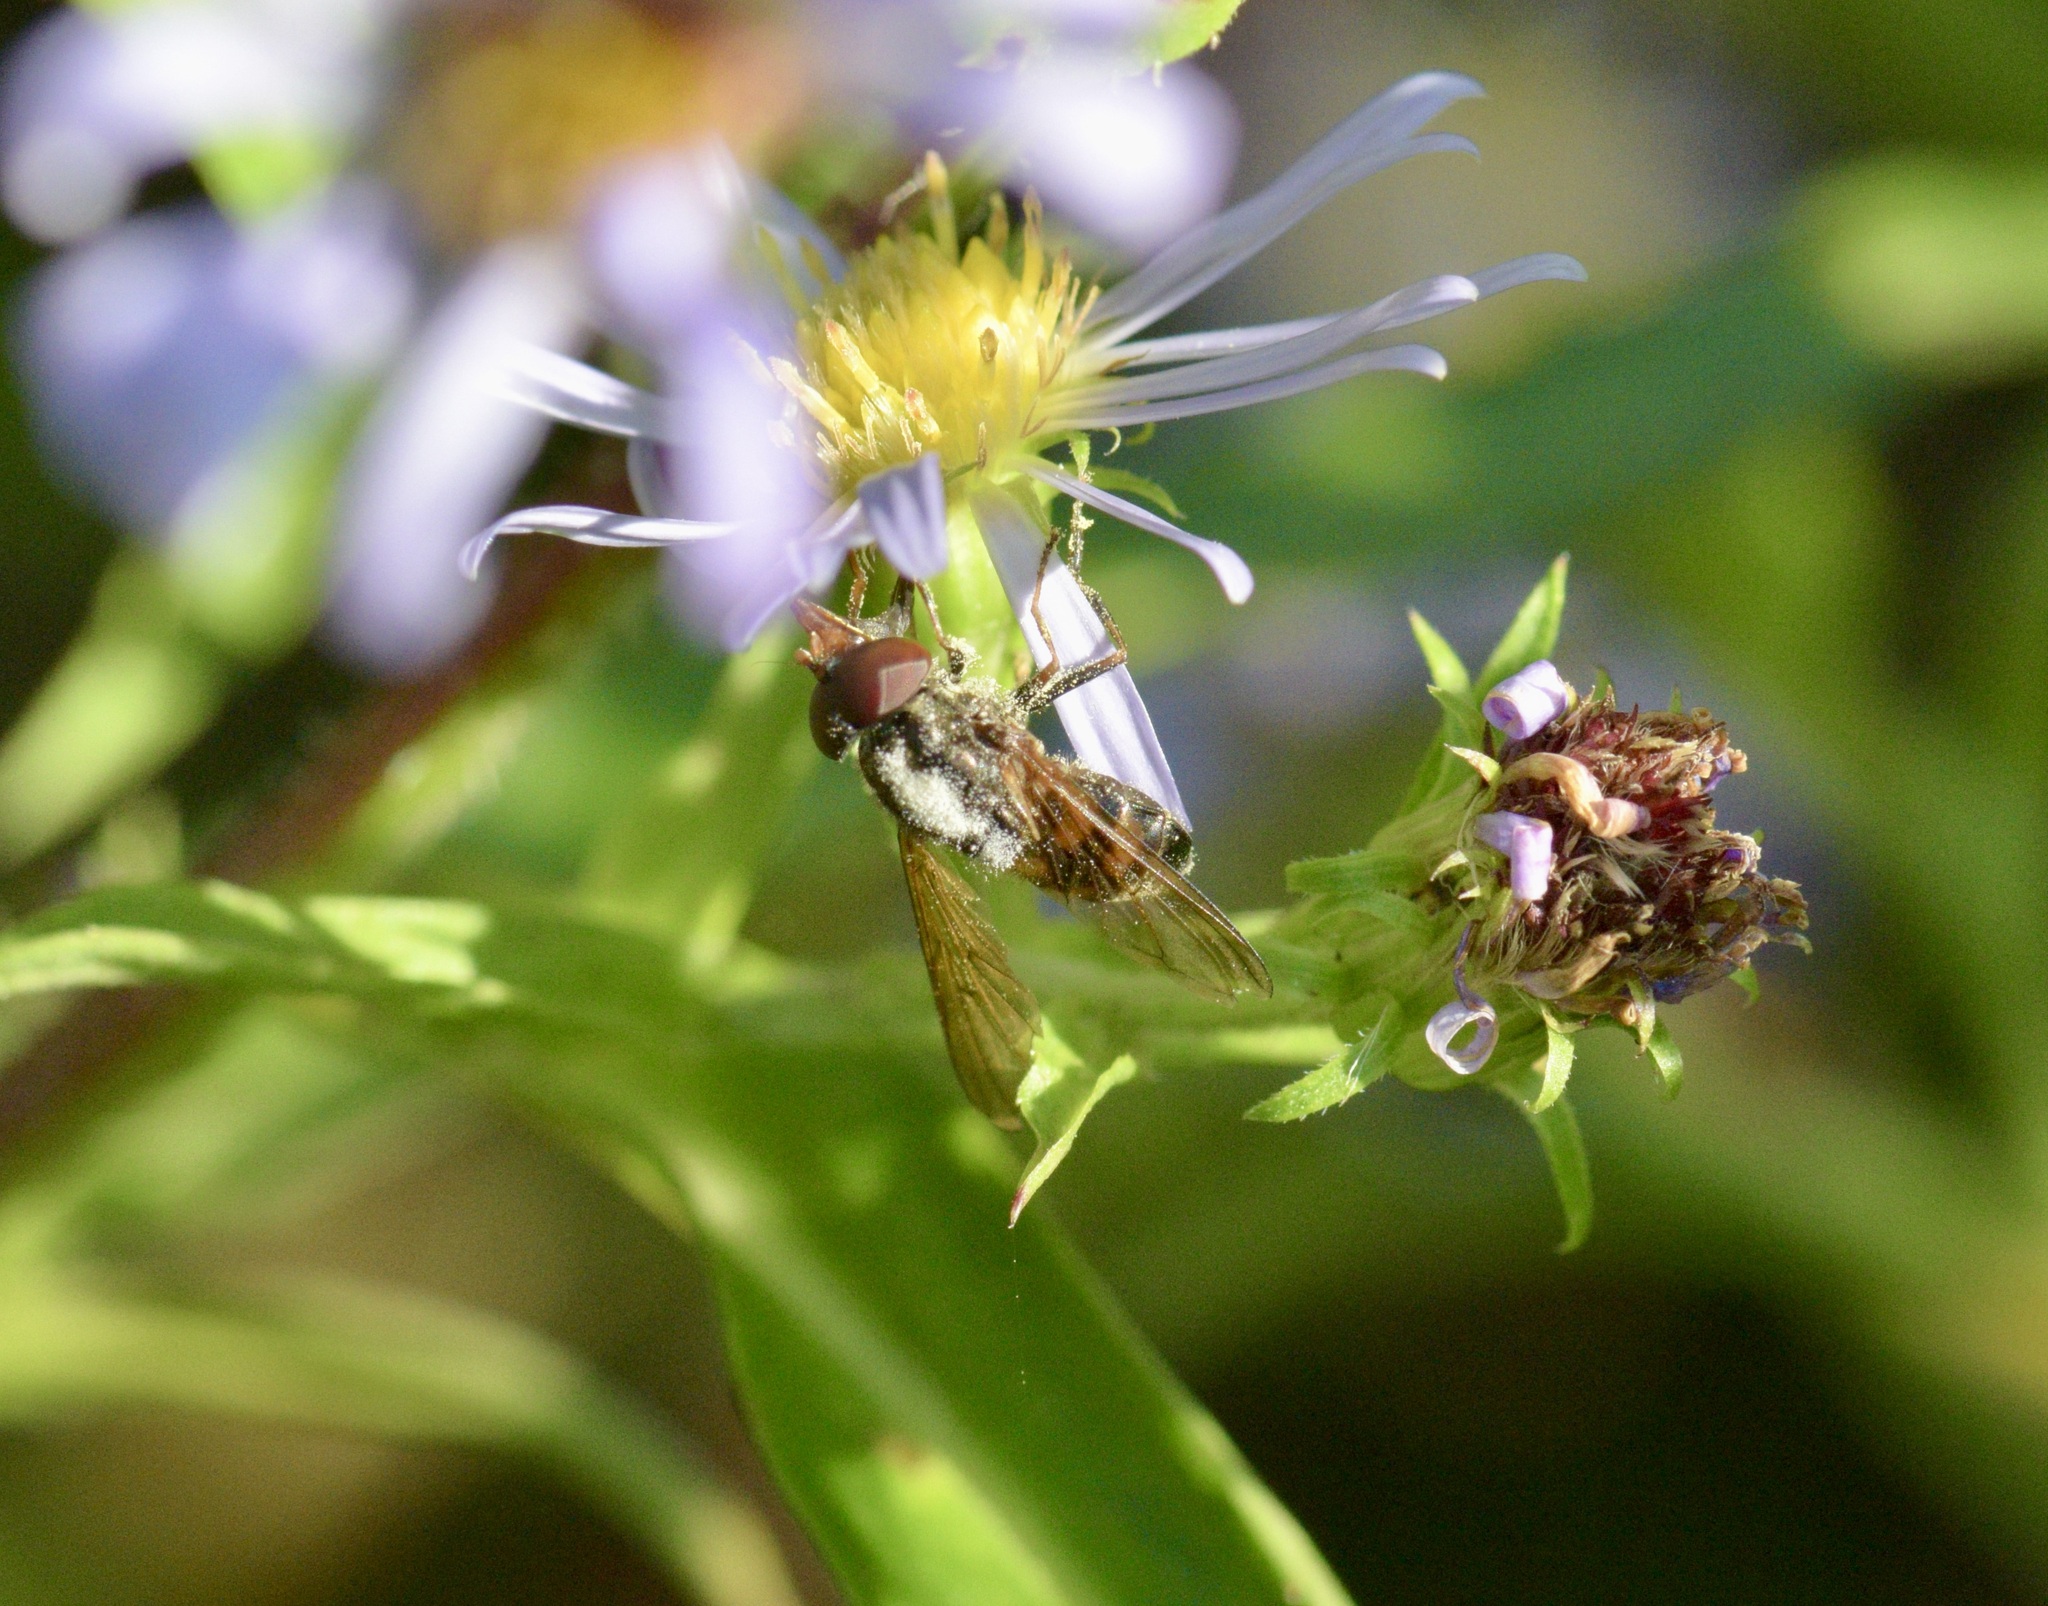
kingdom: Animalia
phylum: Arthropoda
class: Insecta
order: Diptera
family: Syrphidae
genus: Rhingia
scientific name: Rhingia nasica
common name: American snout fly
